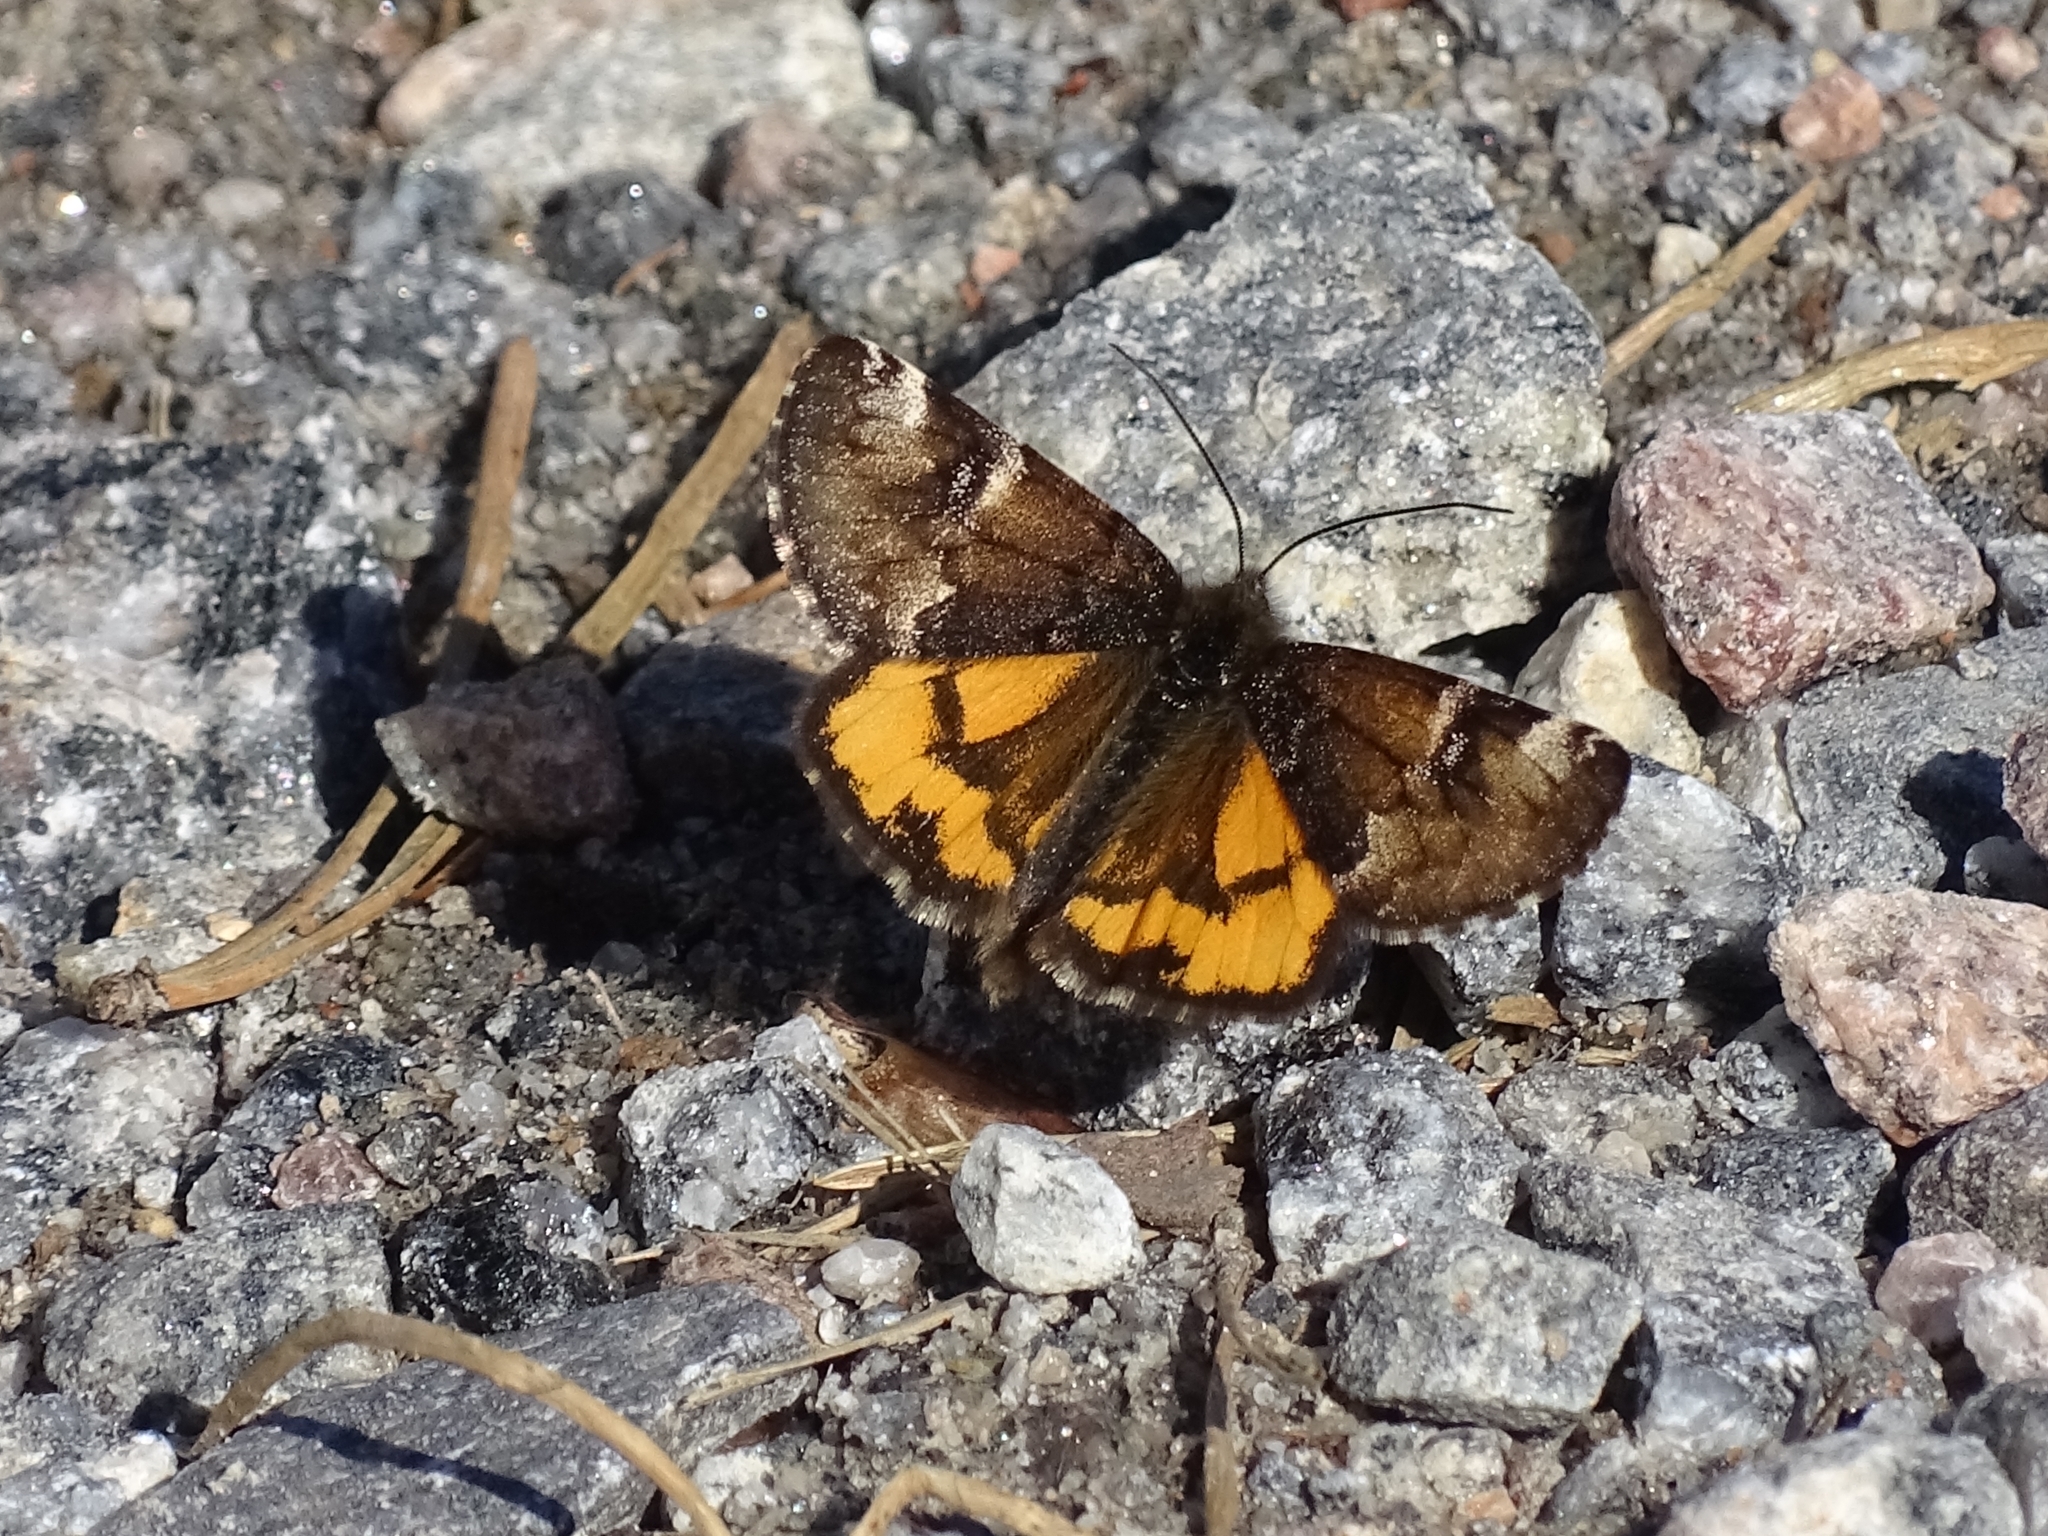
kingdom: Animalia
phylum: Arthropoda
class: Insecta
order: Lepidoptera
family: Geometridae
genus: Archiearis
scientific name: Archiearis parthenias
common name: Orange underwing
